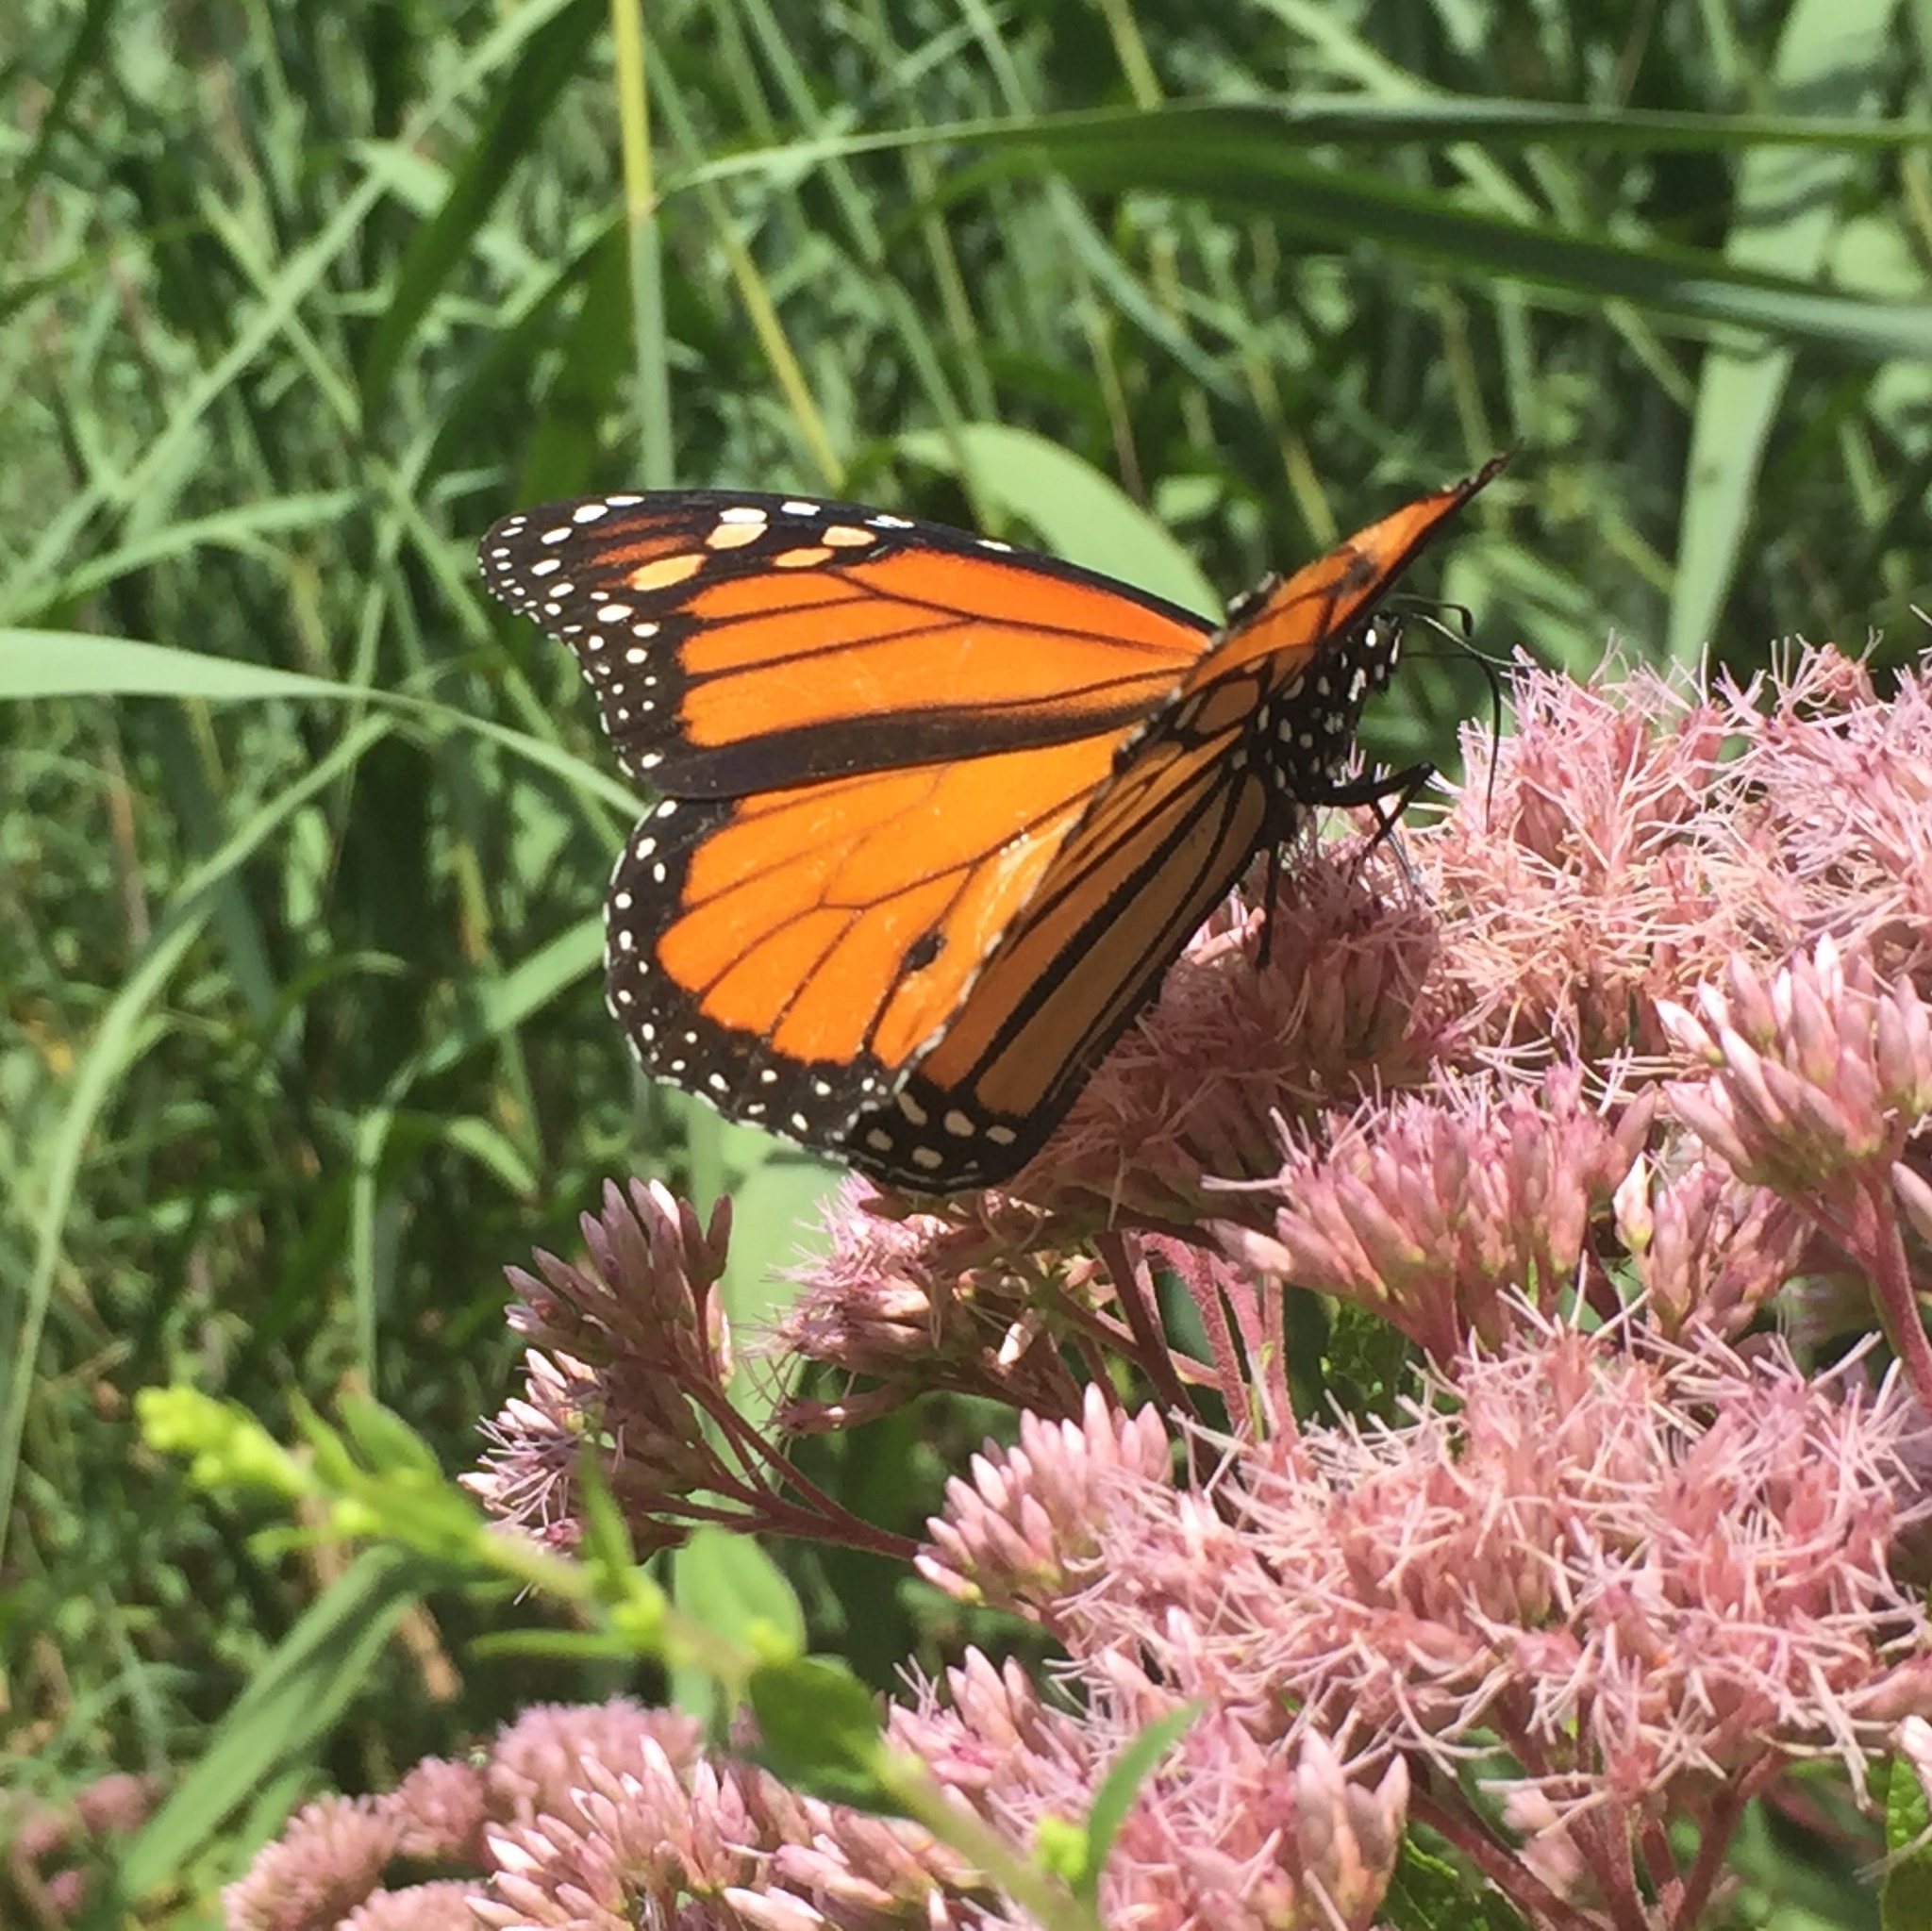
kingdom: Animalia
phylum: Arthropoda
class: Insecta
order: Lepidoptera
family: Nymphalidae
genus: Danaus
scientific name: Danaus plexippus
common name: Monarch
